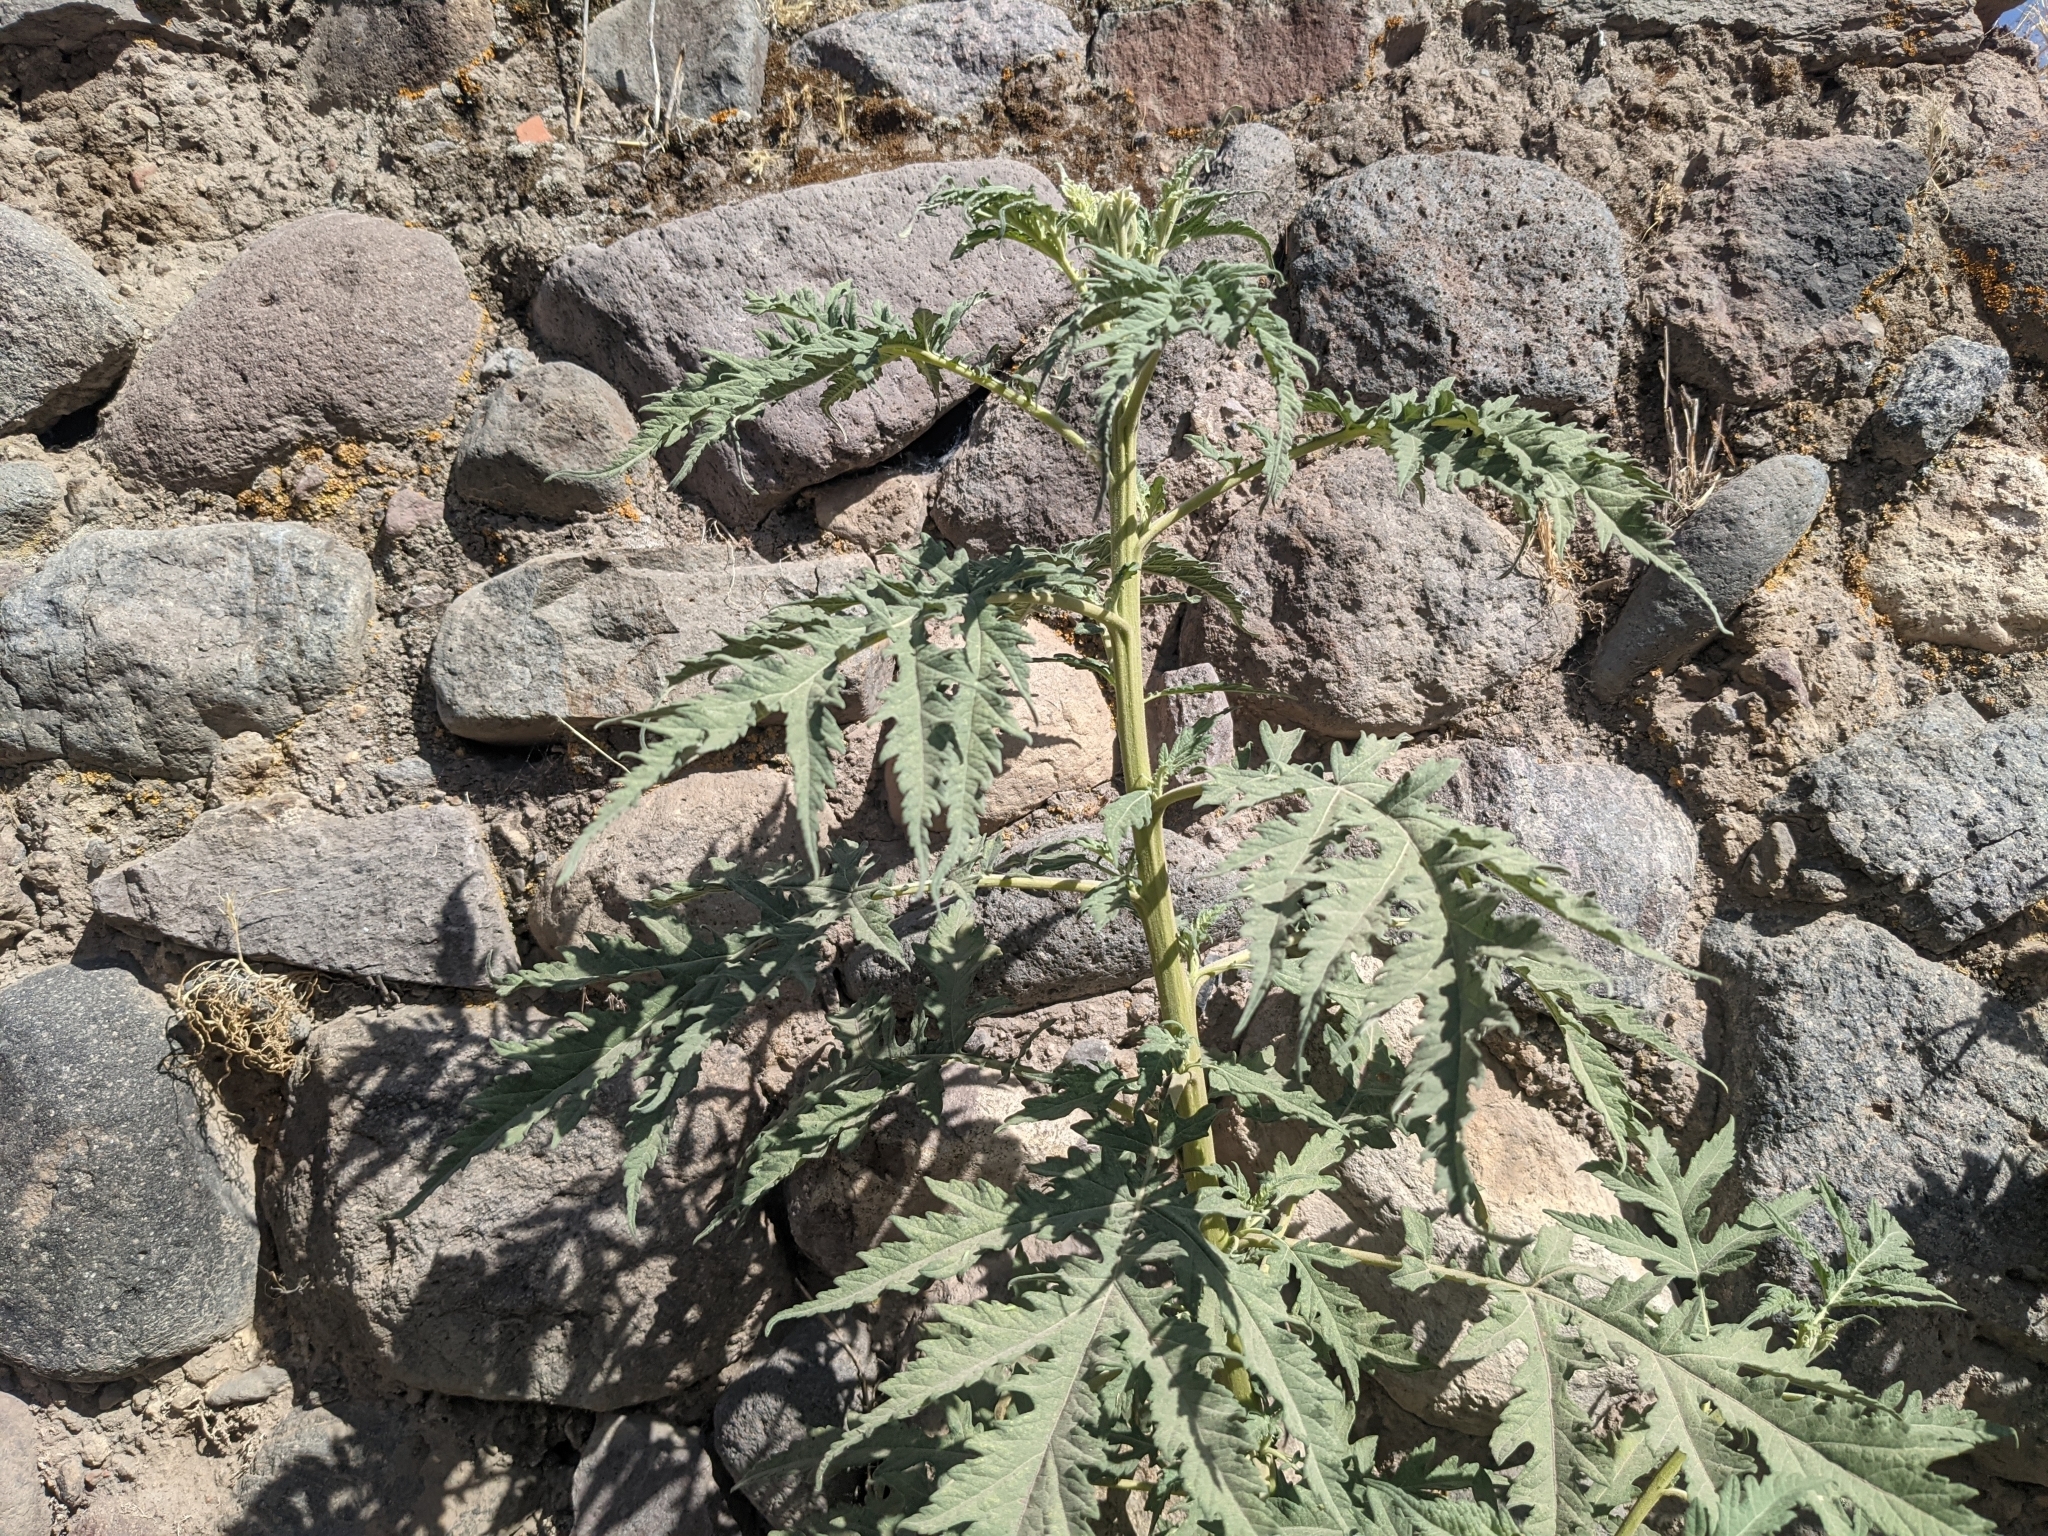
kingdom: Plantae
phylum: Tracheophyta
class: Magnoliopsida
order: Asterales
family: Asteraceae
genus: Ambrosia
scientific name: Ambrosia arborescens
